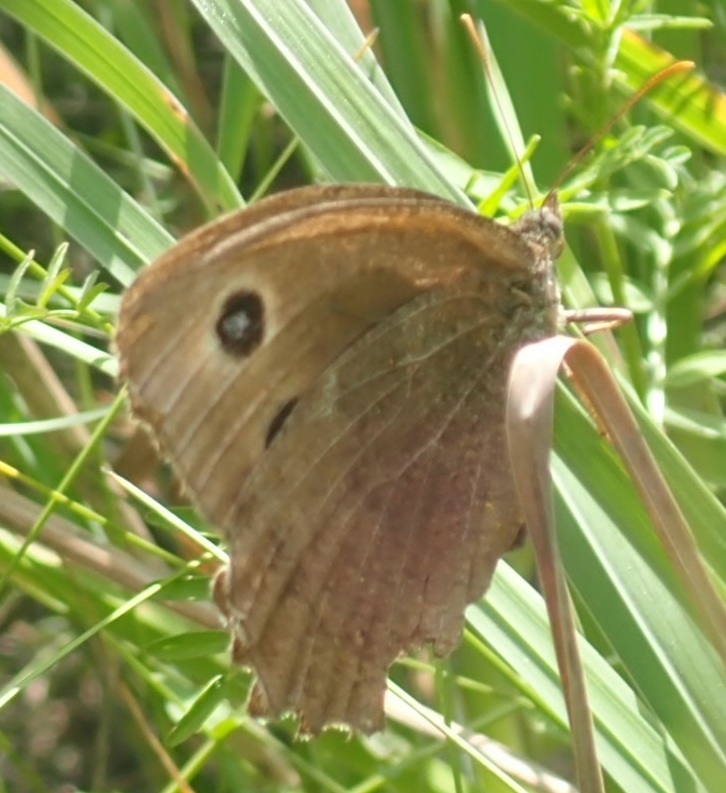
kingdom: Animalia
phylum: Arthropoda
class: Insecta
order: Lepidoptera
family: Nymphalidae
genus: Minois
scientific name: Minois dryas
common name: Dryad
